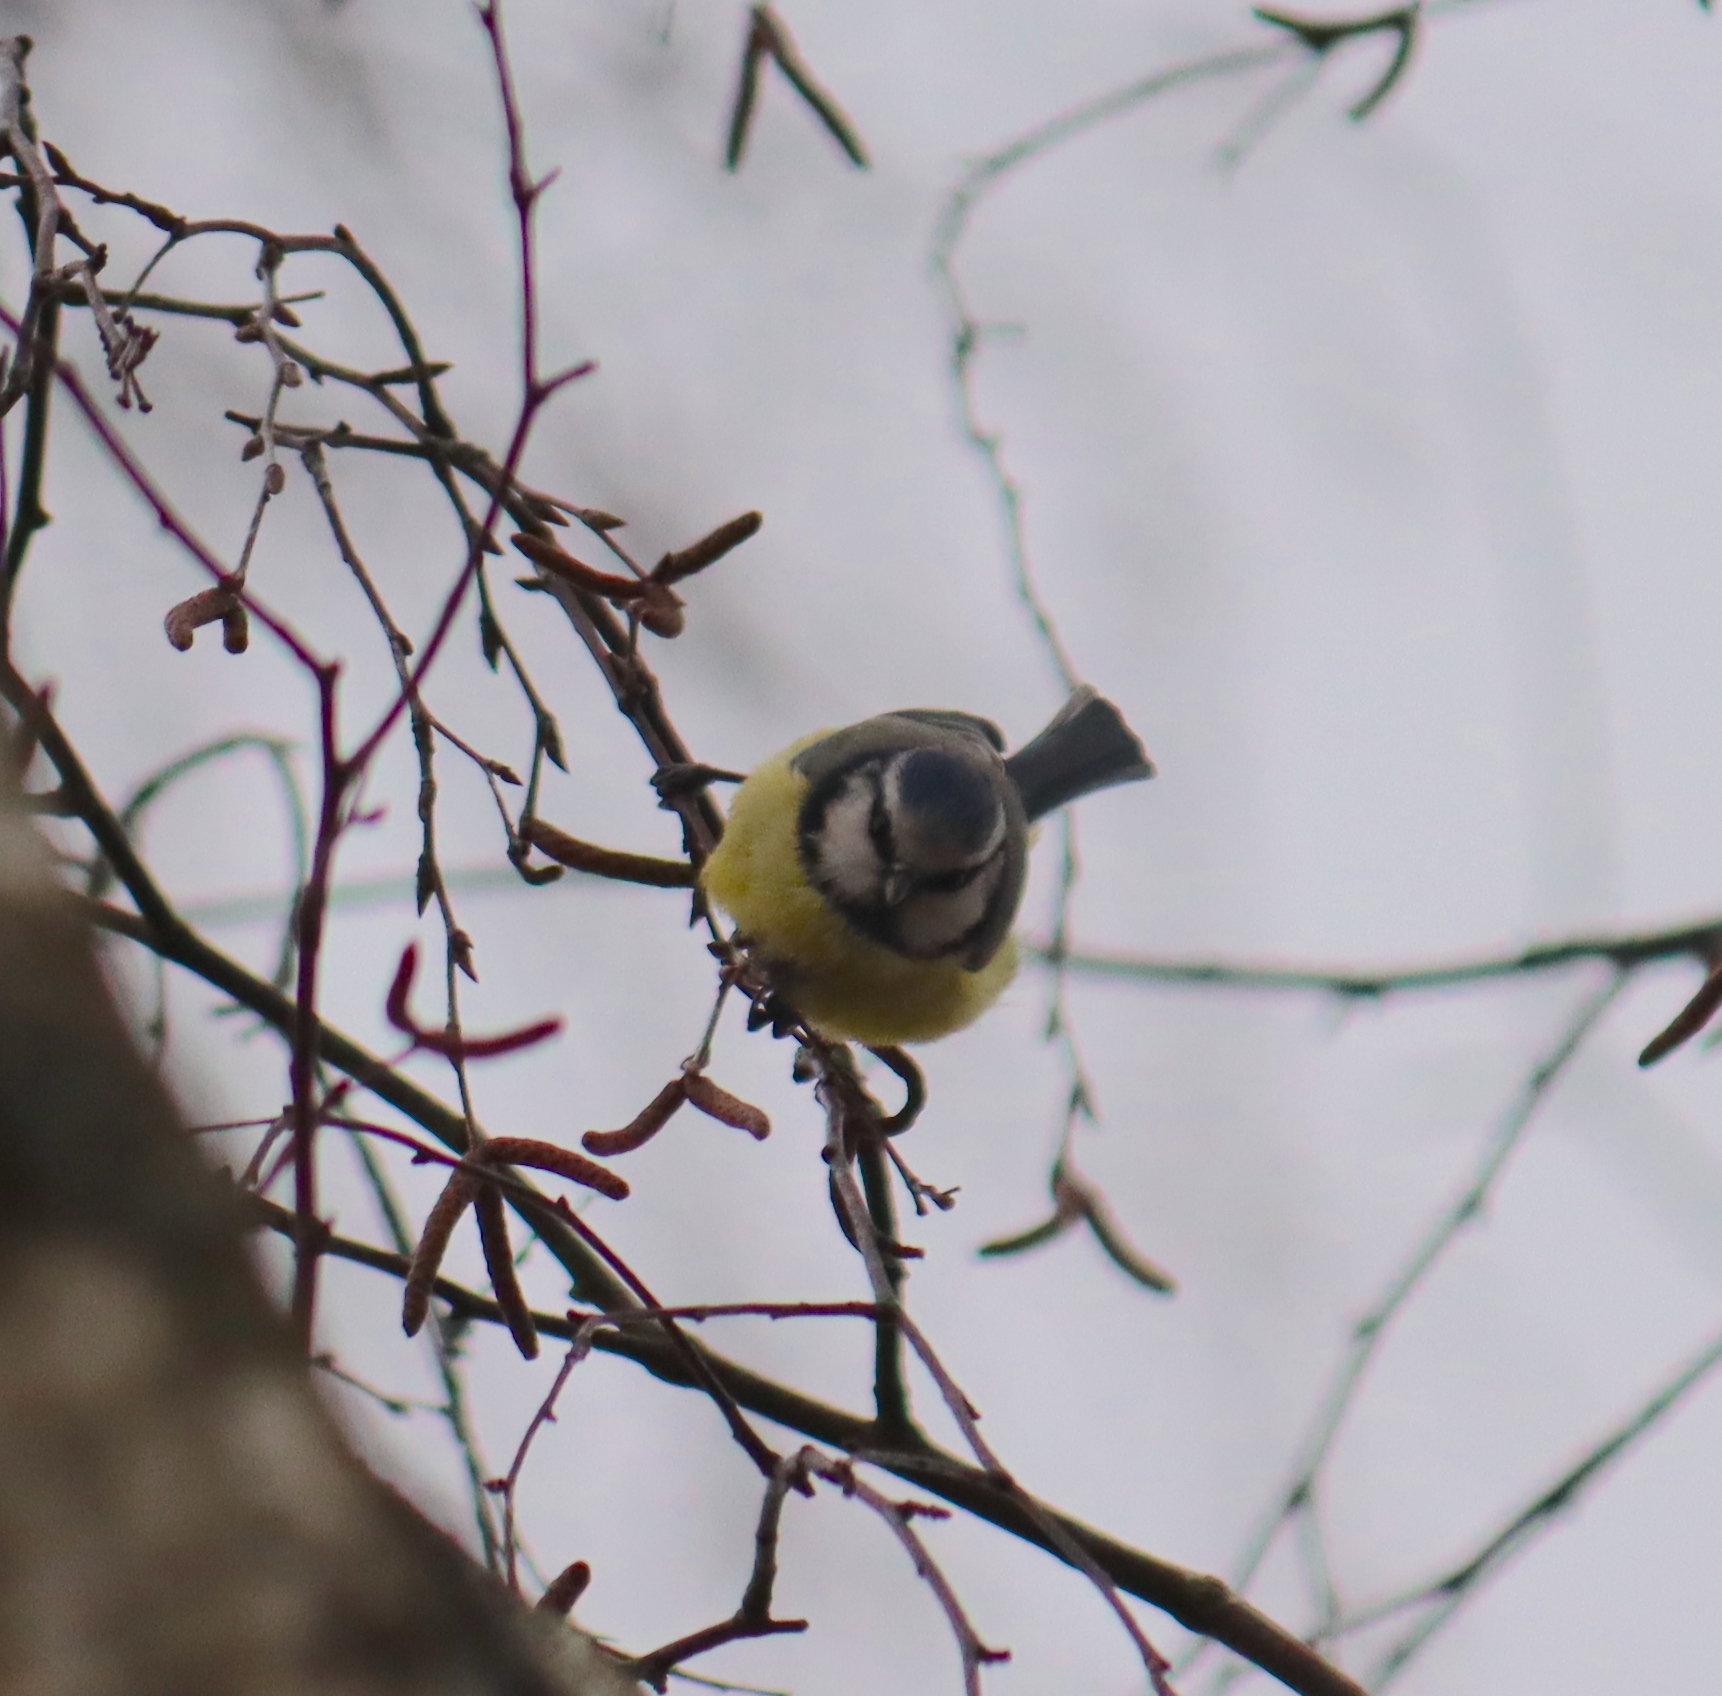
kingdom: Animalia
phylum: Chordata
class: Aves
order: Passeriformes
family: Paridae
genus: Cyanistes
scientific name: Cyanistes caeruleus
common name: Eurasian blue tit
